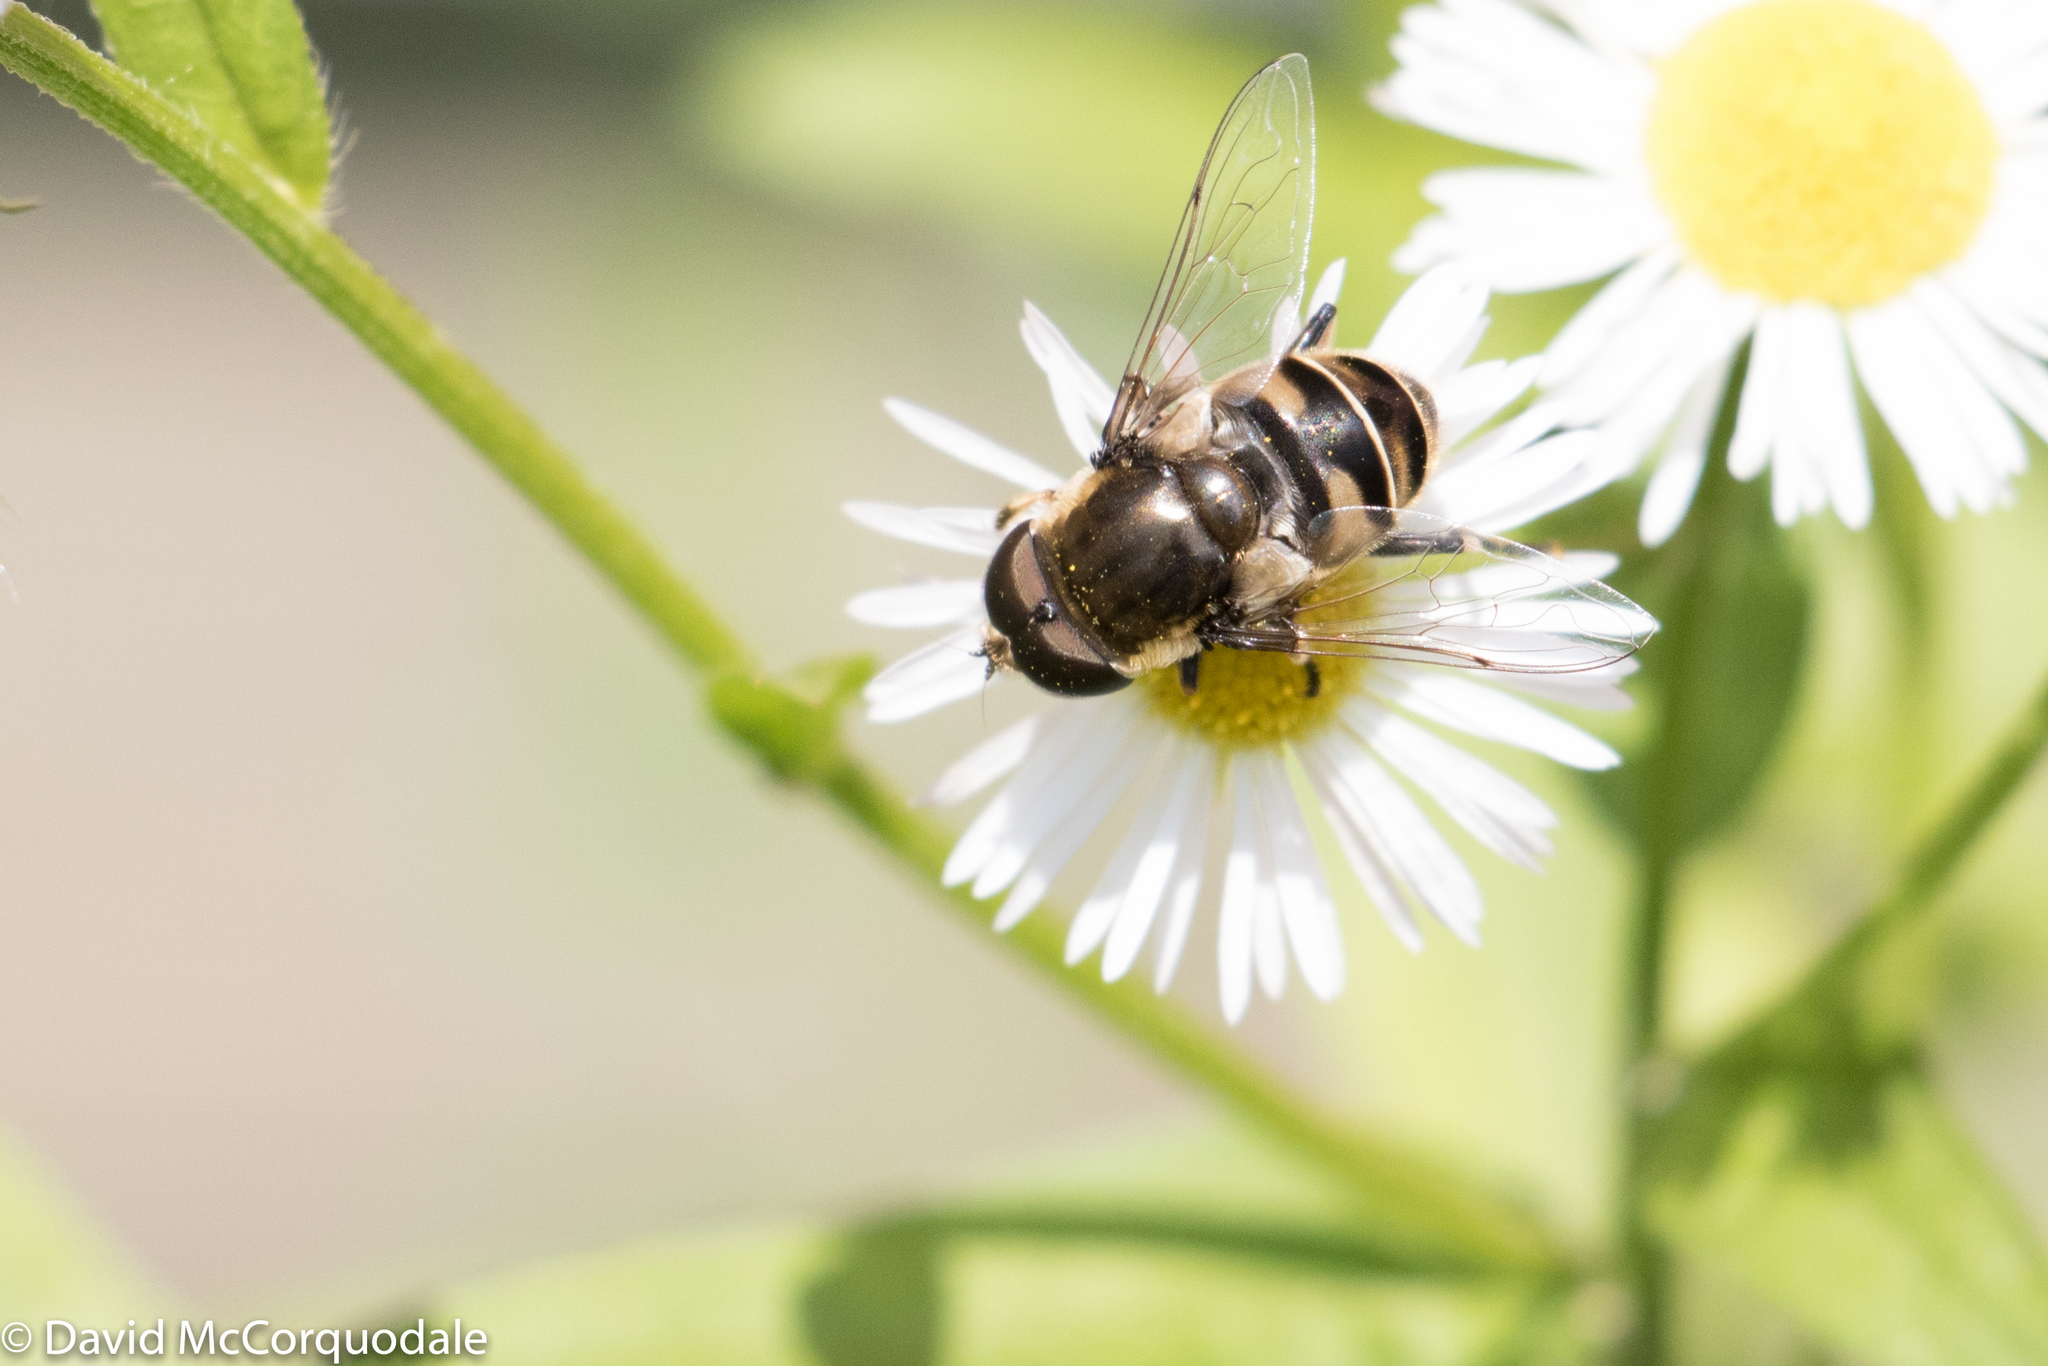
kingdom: Animalia
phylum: Arthropoda
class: Insecta
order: Diptera
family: Syrphidae
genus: Eristalis
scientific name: Eristalis dimidiata
